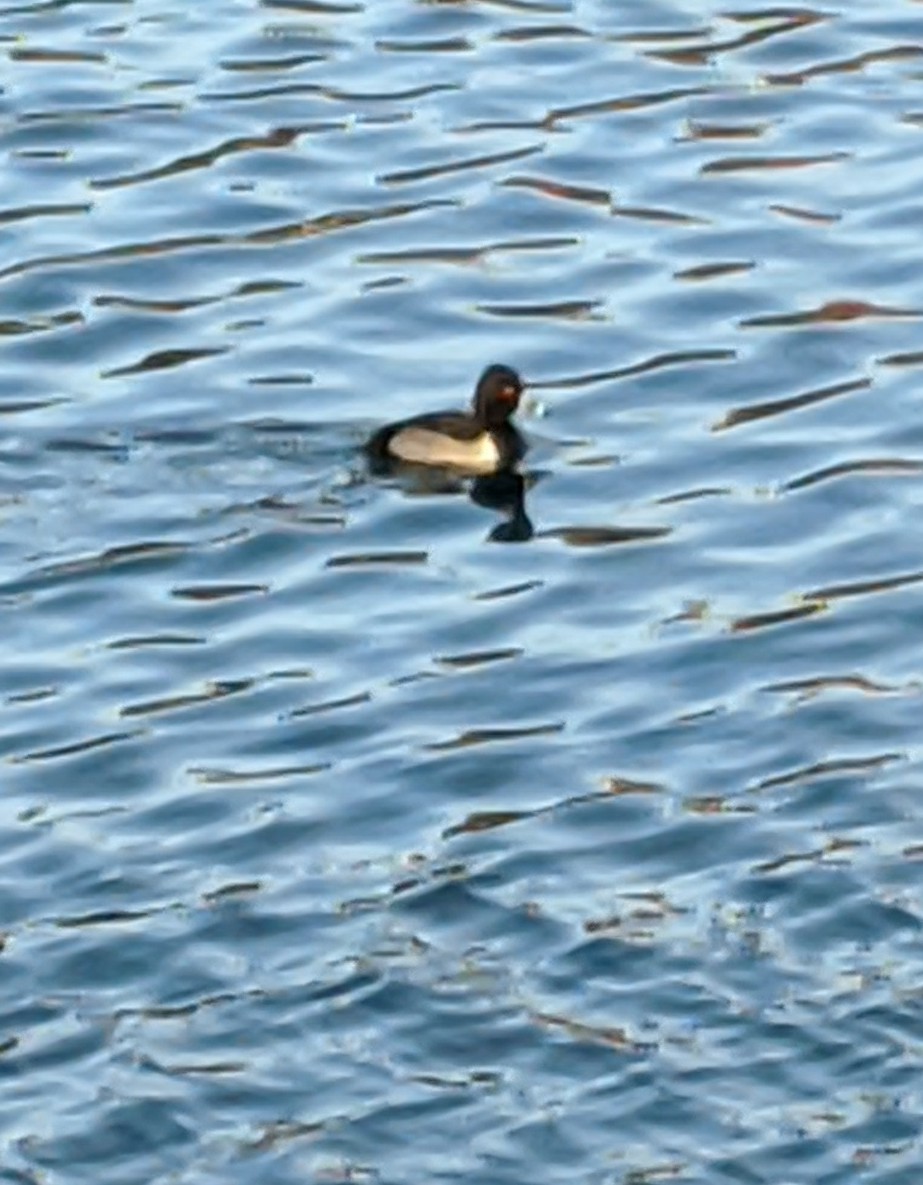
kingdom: Animalia
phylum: Chordata
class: Aves
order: Anseriformes
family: Anatidae
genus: Aythya
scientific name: Aythya collaris
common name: Ring-necked duck
